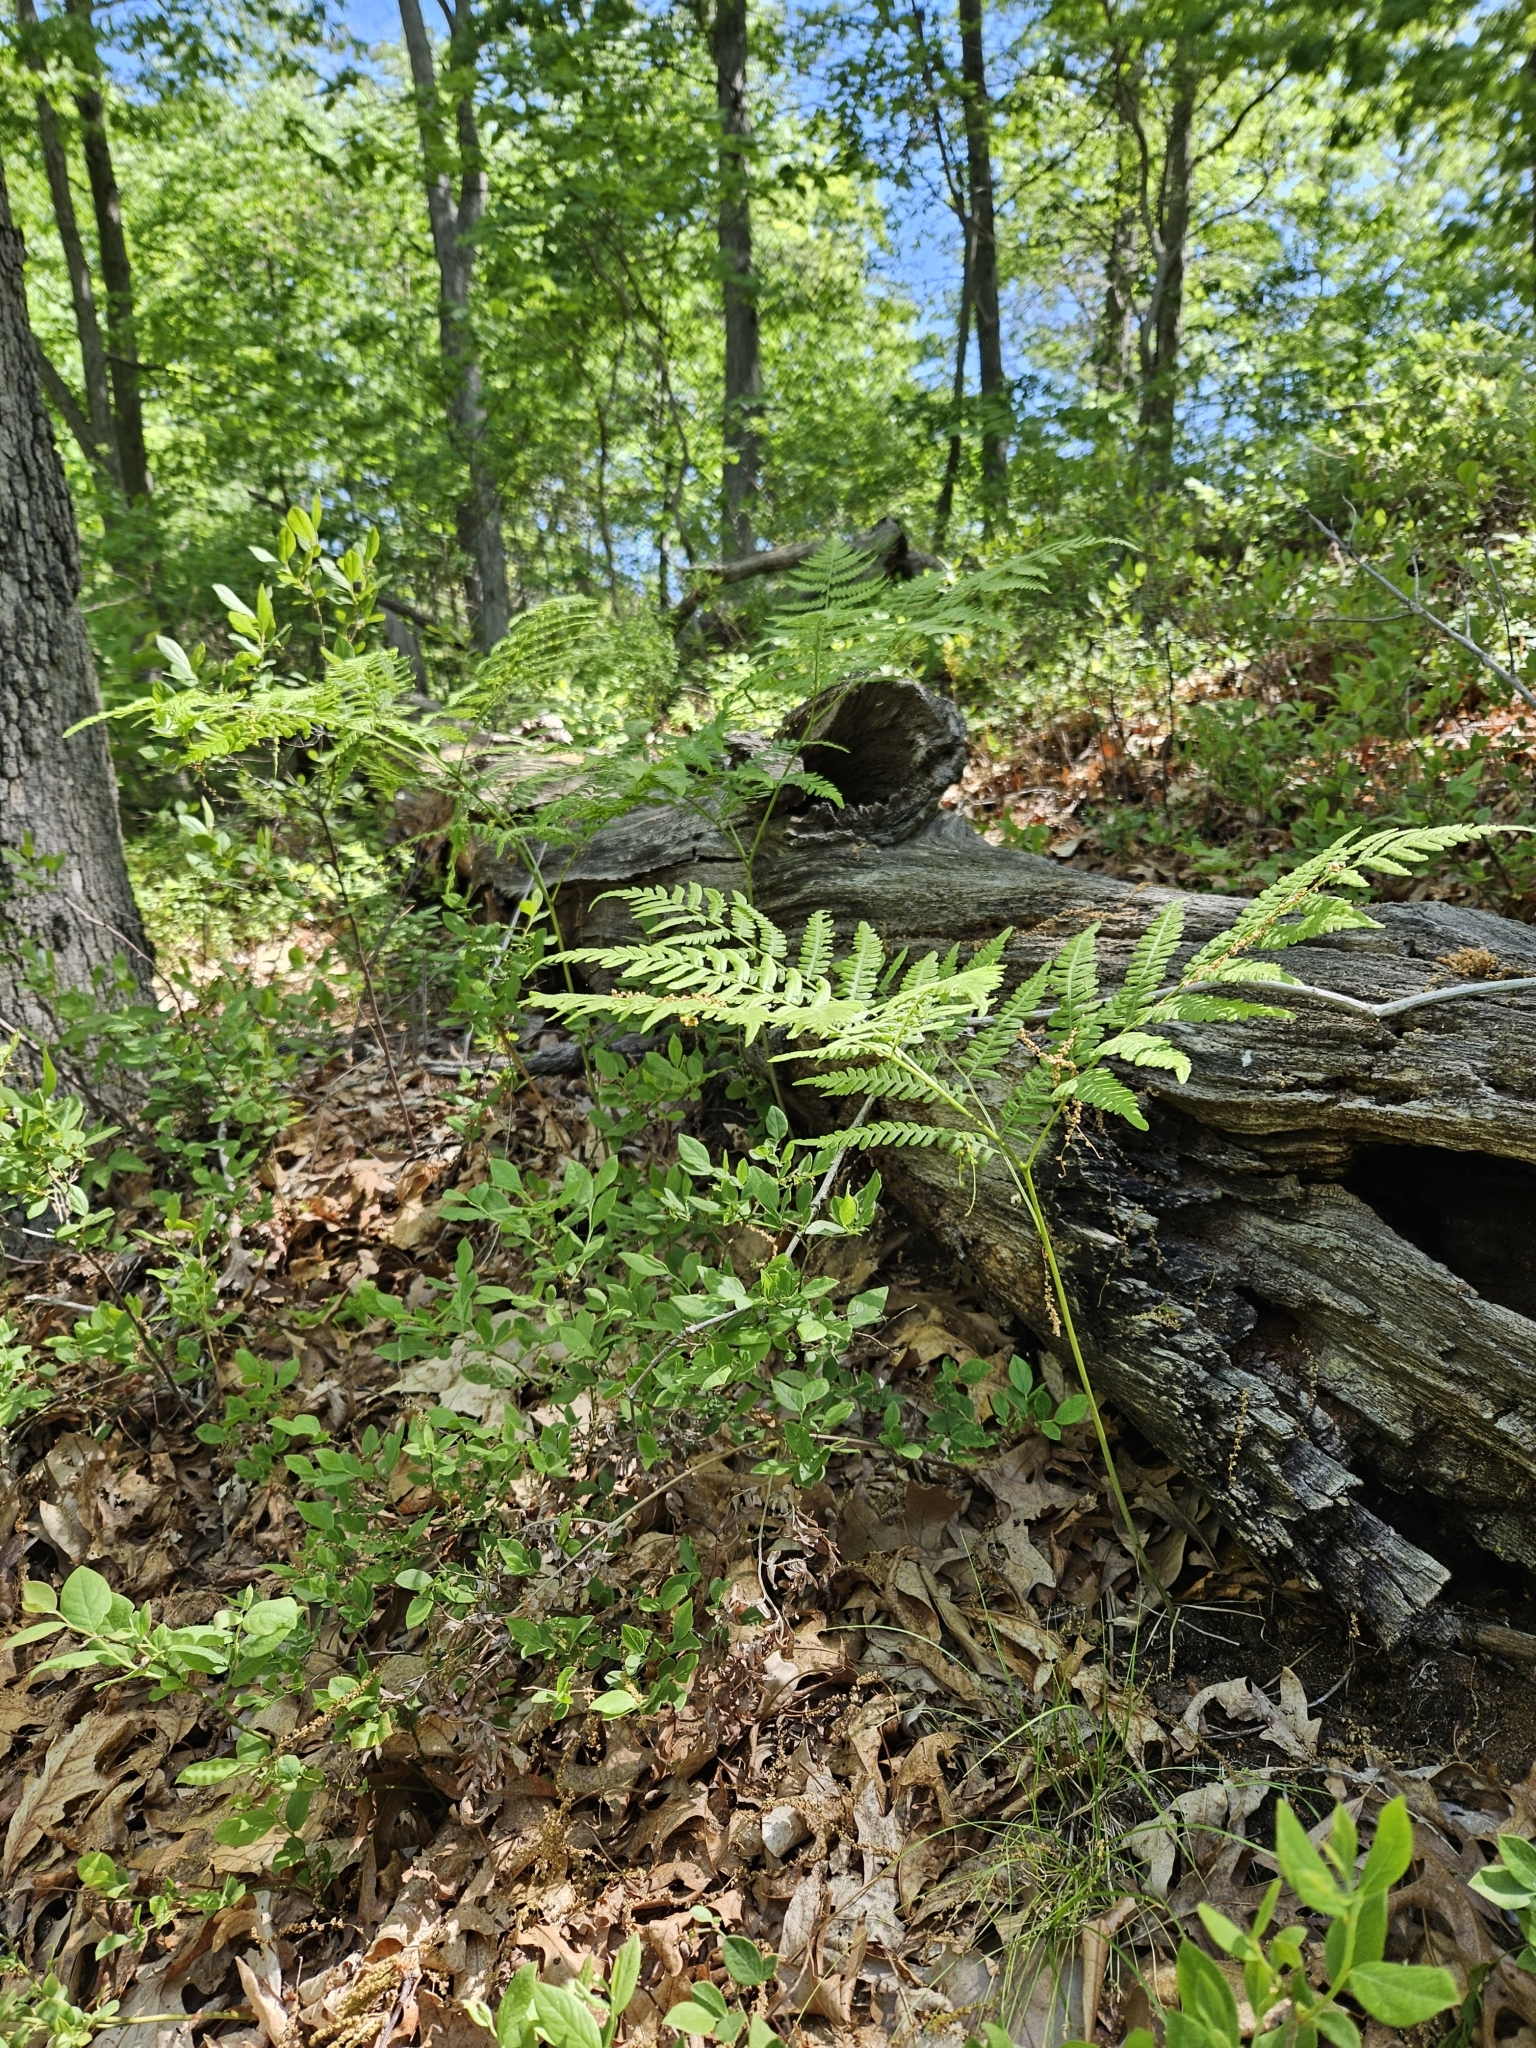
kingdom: Plantae
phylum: Tracheophyta
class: Polypodiopsida
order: Polypodiales
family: Dennstaedtiaceae
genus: Pteridium
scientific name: Pteridium aquilinum
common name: Bracken
